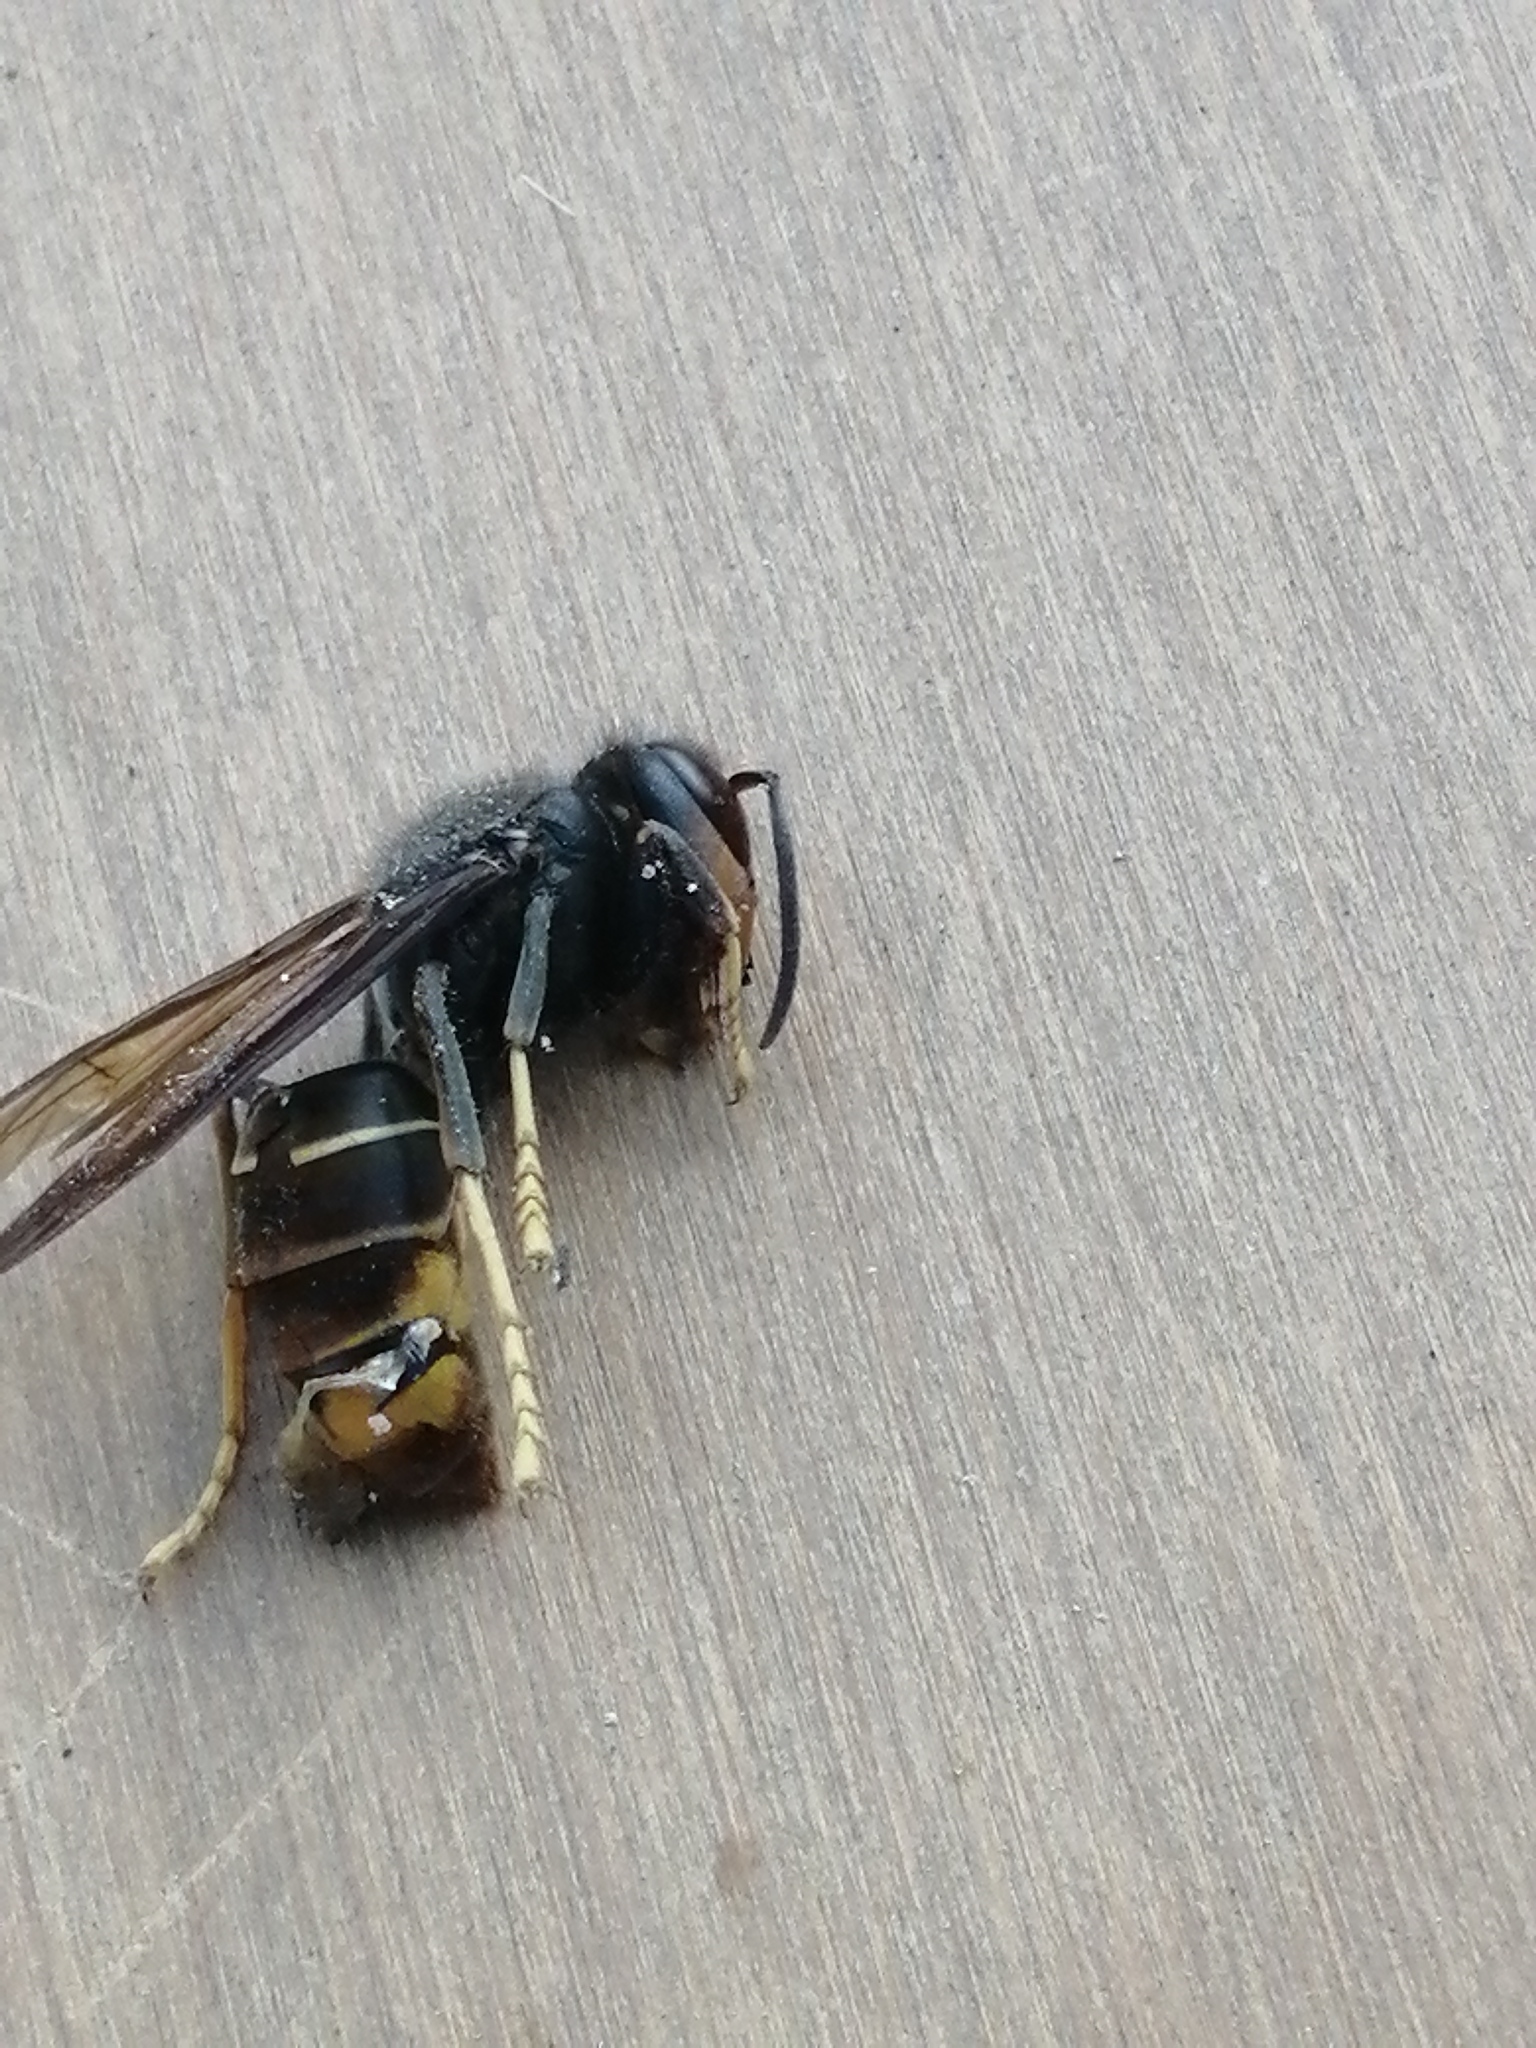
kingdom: Animalia
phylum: Arthropoda
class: Insecta
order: Hymenoptera
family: Vespidae
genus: Vespa
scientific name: Vespa velutina
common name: Asian hornet
